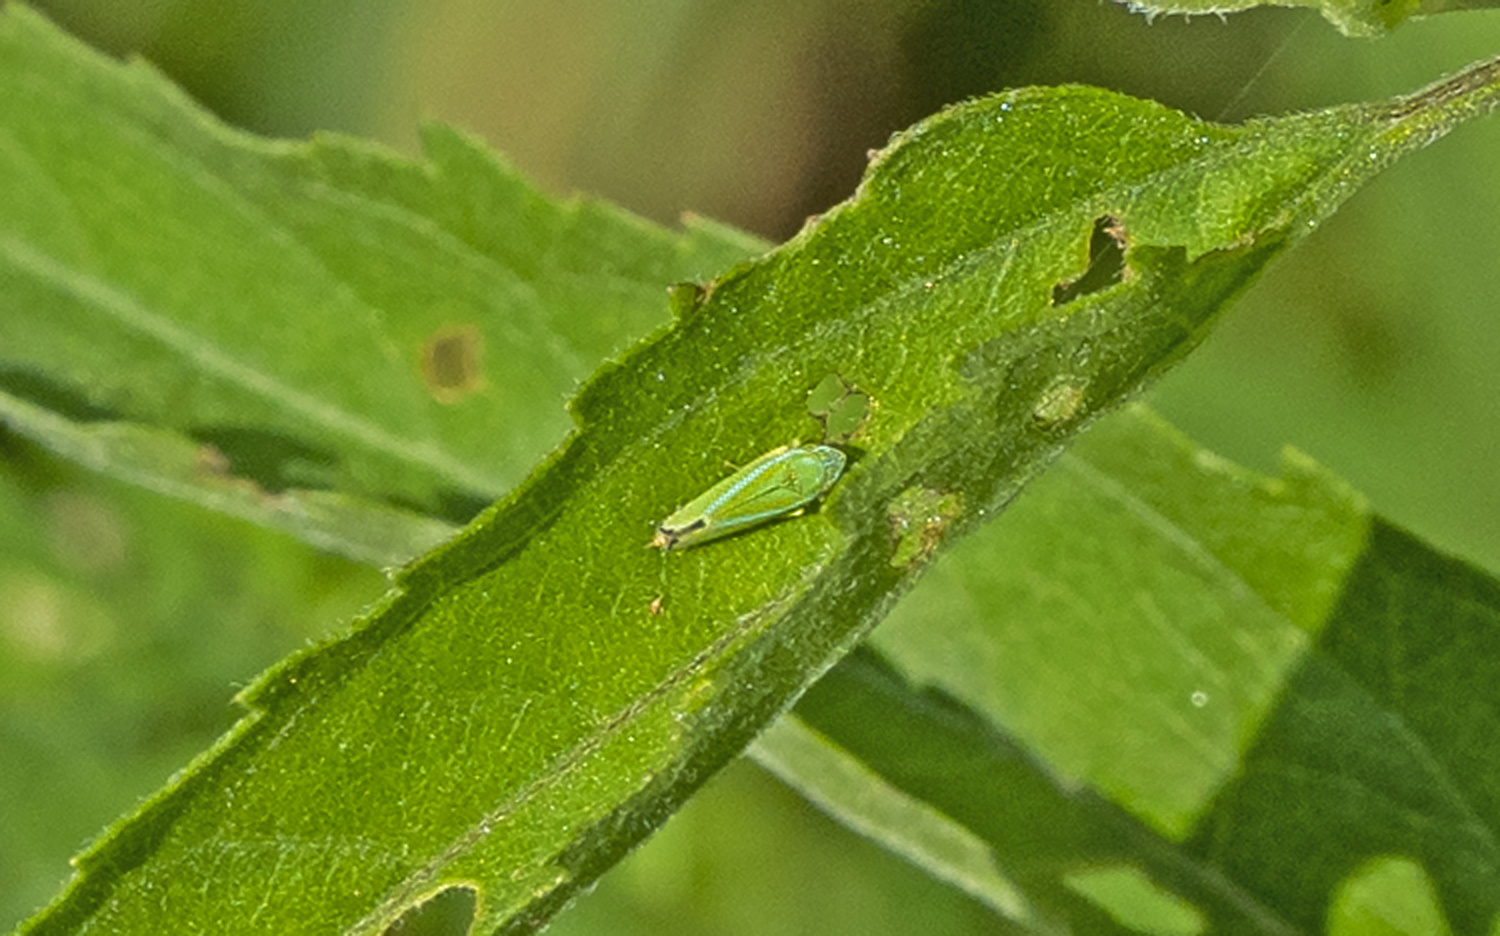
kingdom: Animalia
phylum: Arthropoda
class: Insecta
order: Hemiptera
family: Cicadellidae
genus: Graphocephala
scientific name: Graphocephala versuta
